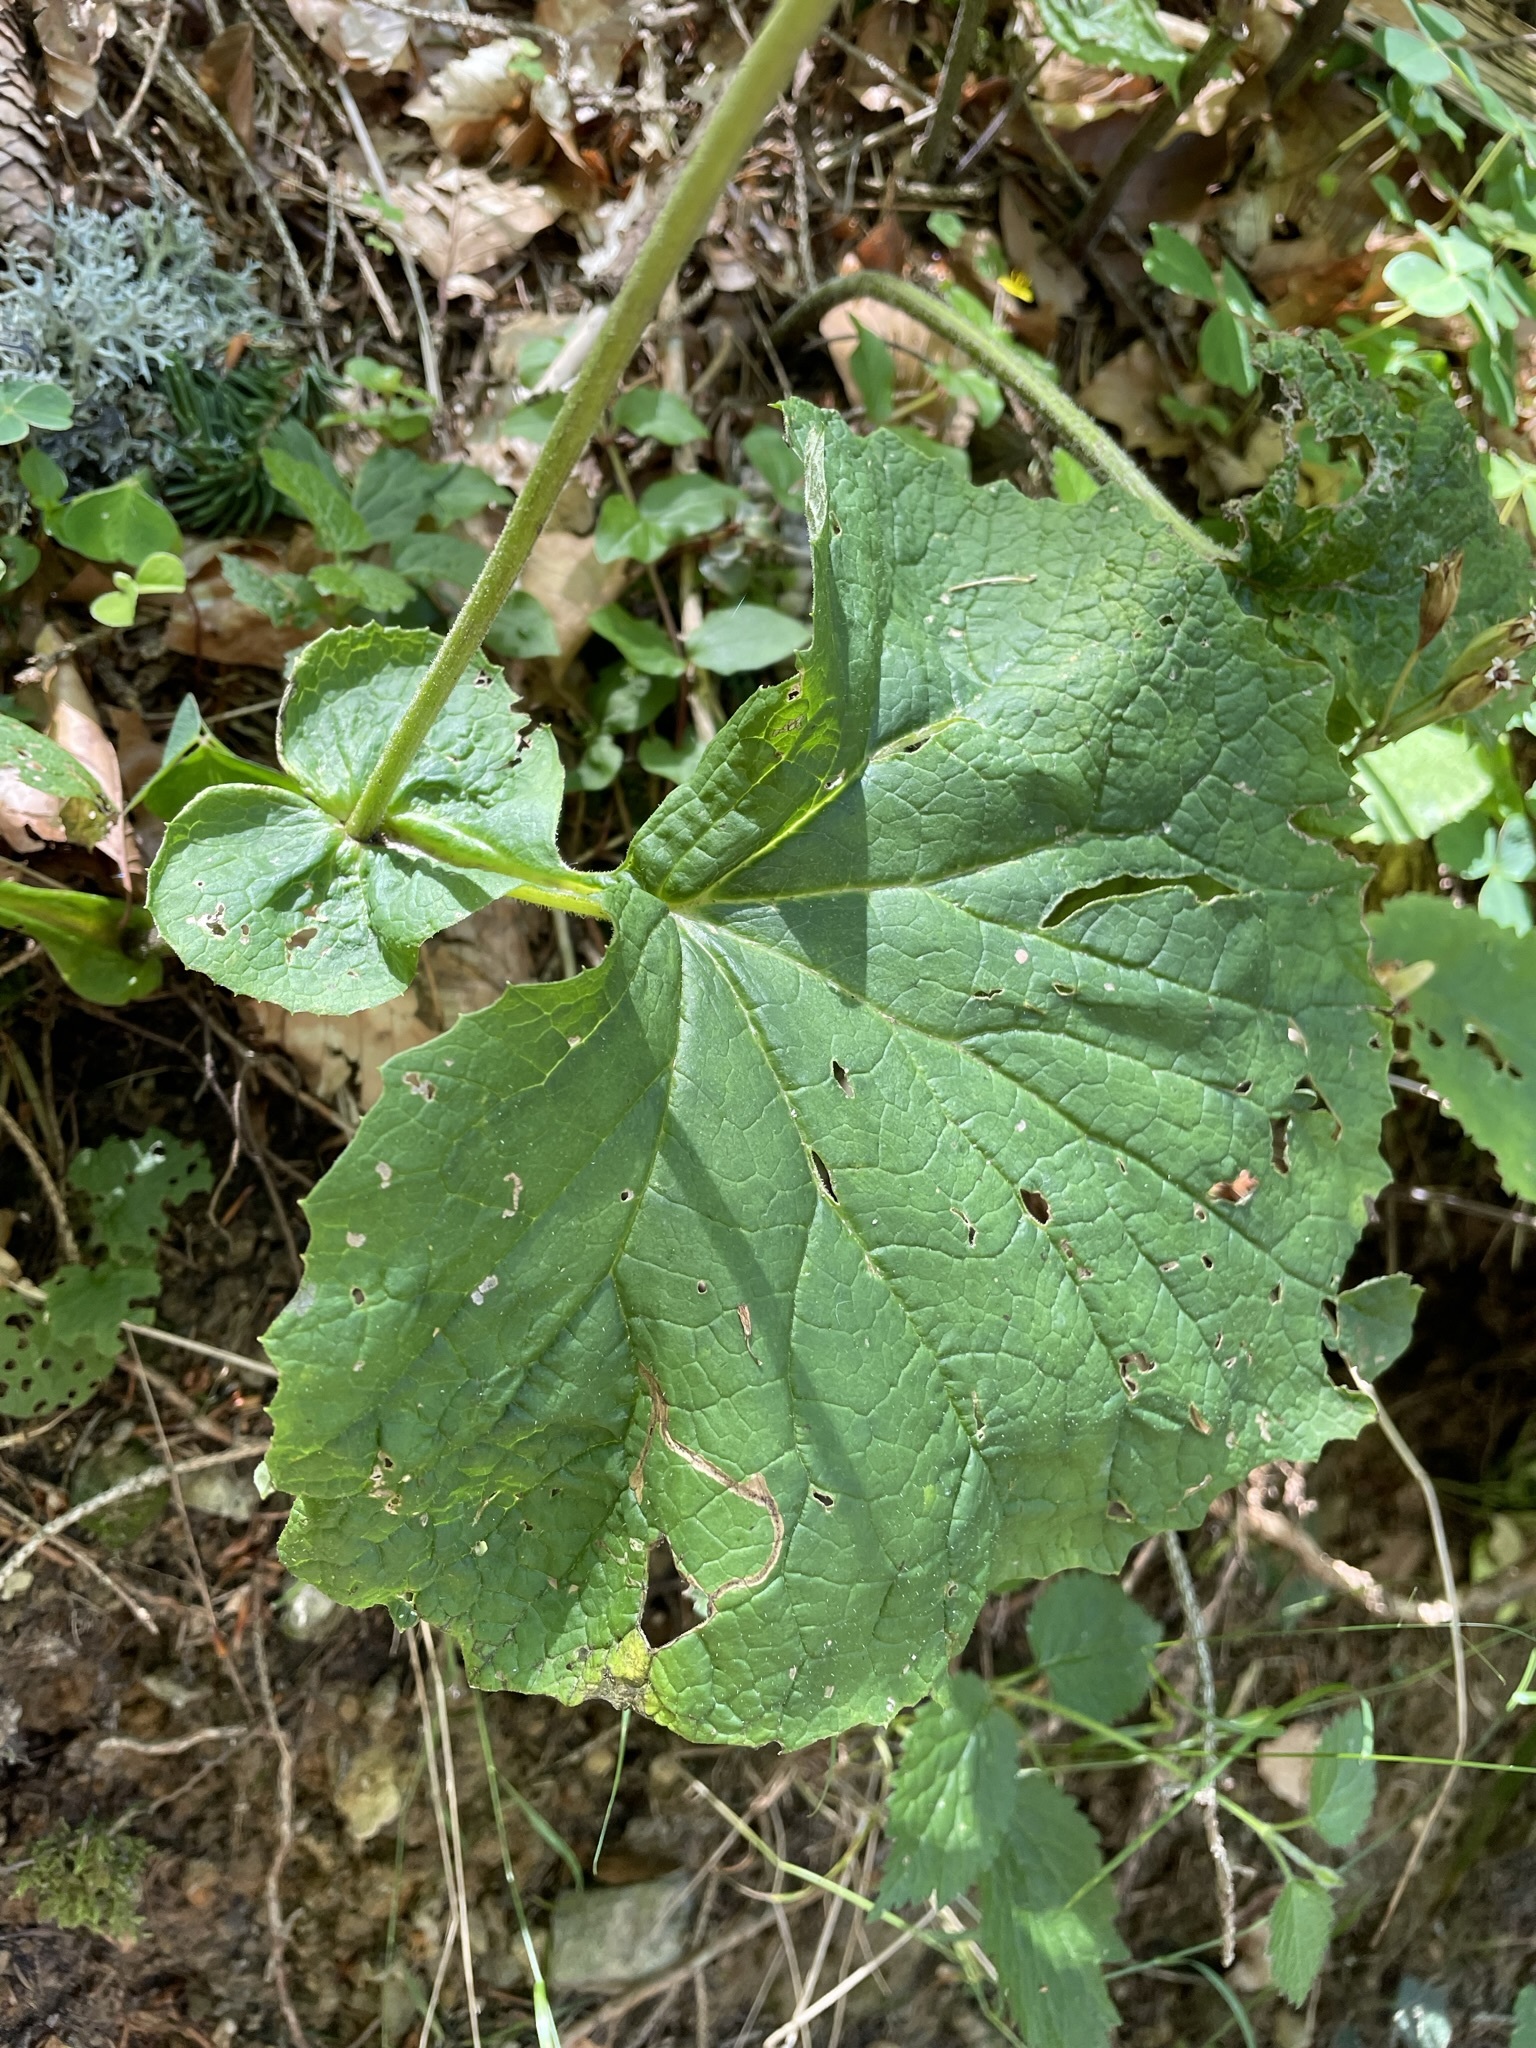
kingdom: Plantae
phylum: Tracheophyta
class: Magnoliopsida
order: Asterales
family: Asteraceae
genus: Adenostyles
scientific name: Adenostyles alliariae
